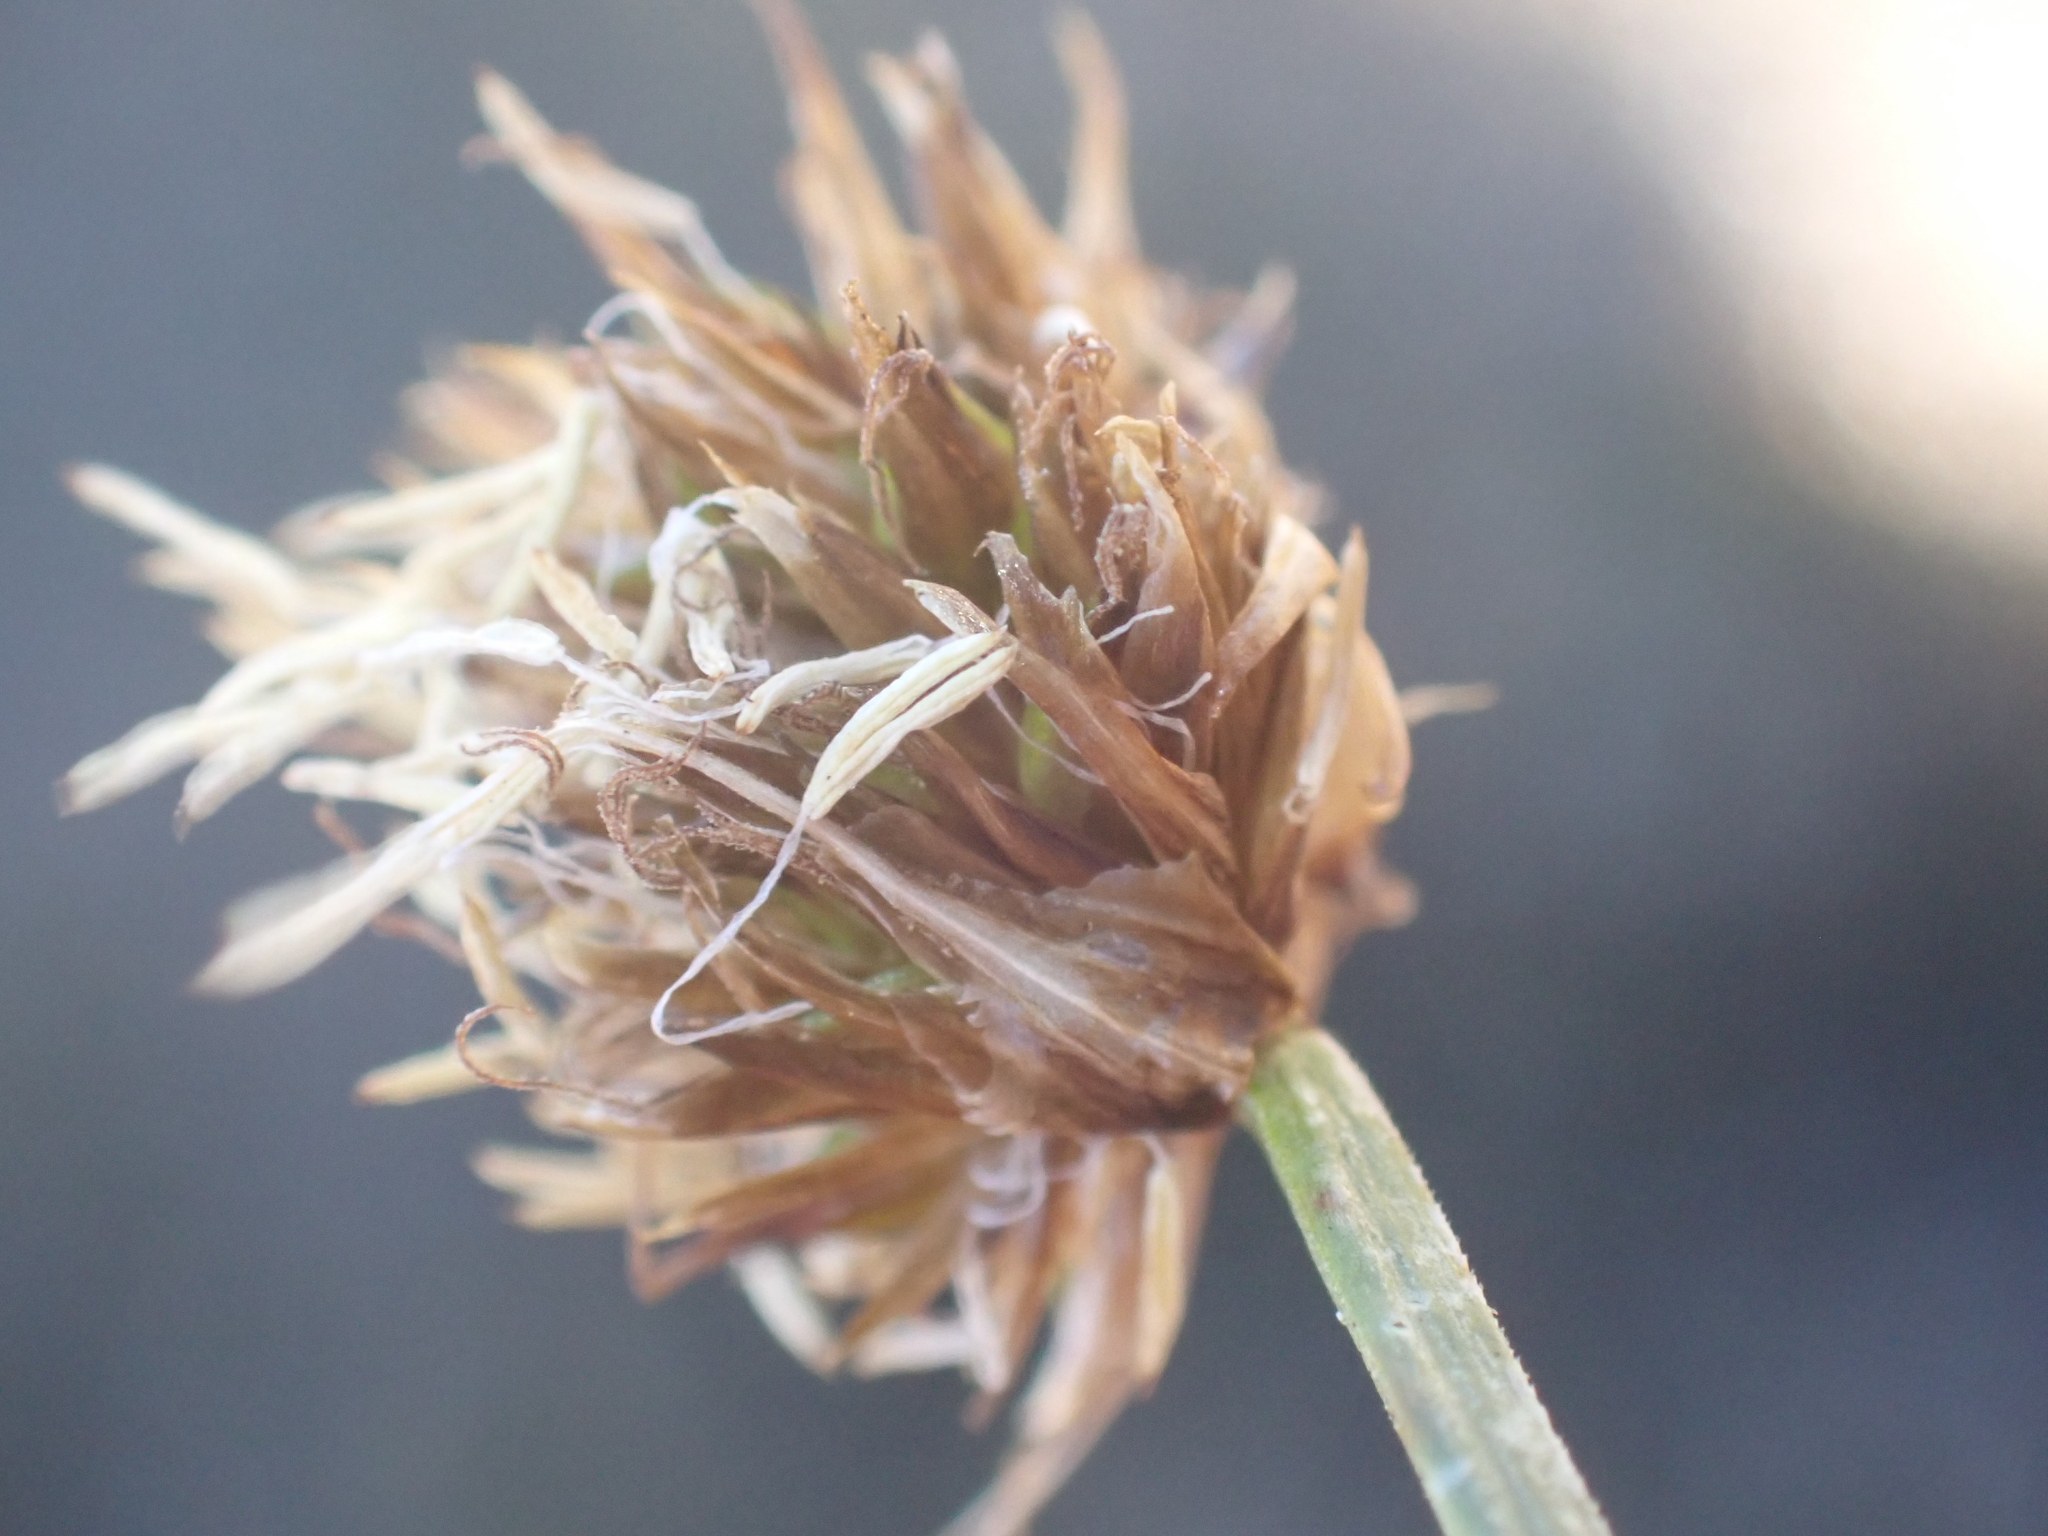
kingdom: Plantae
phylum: Tracheophyta
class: Liliopsida
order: Poales
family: Cyperaceae
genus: Carex
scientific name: Carex vernacula
